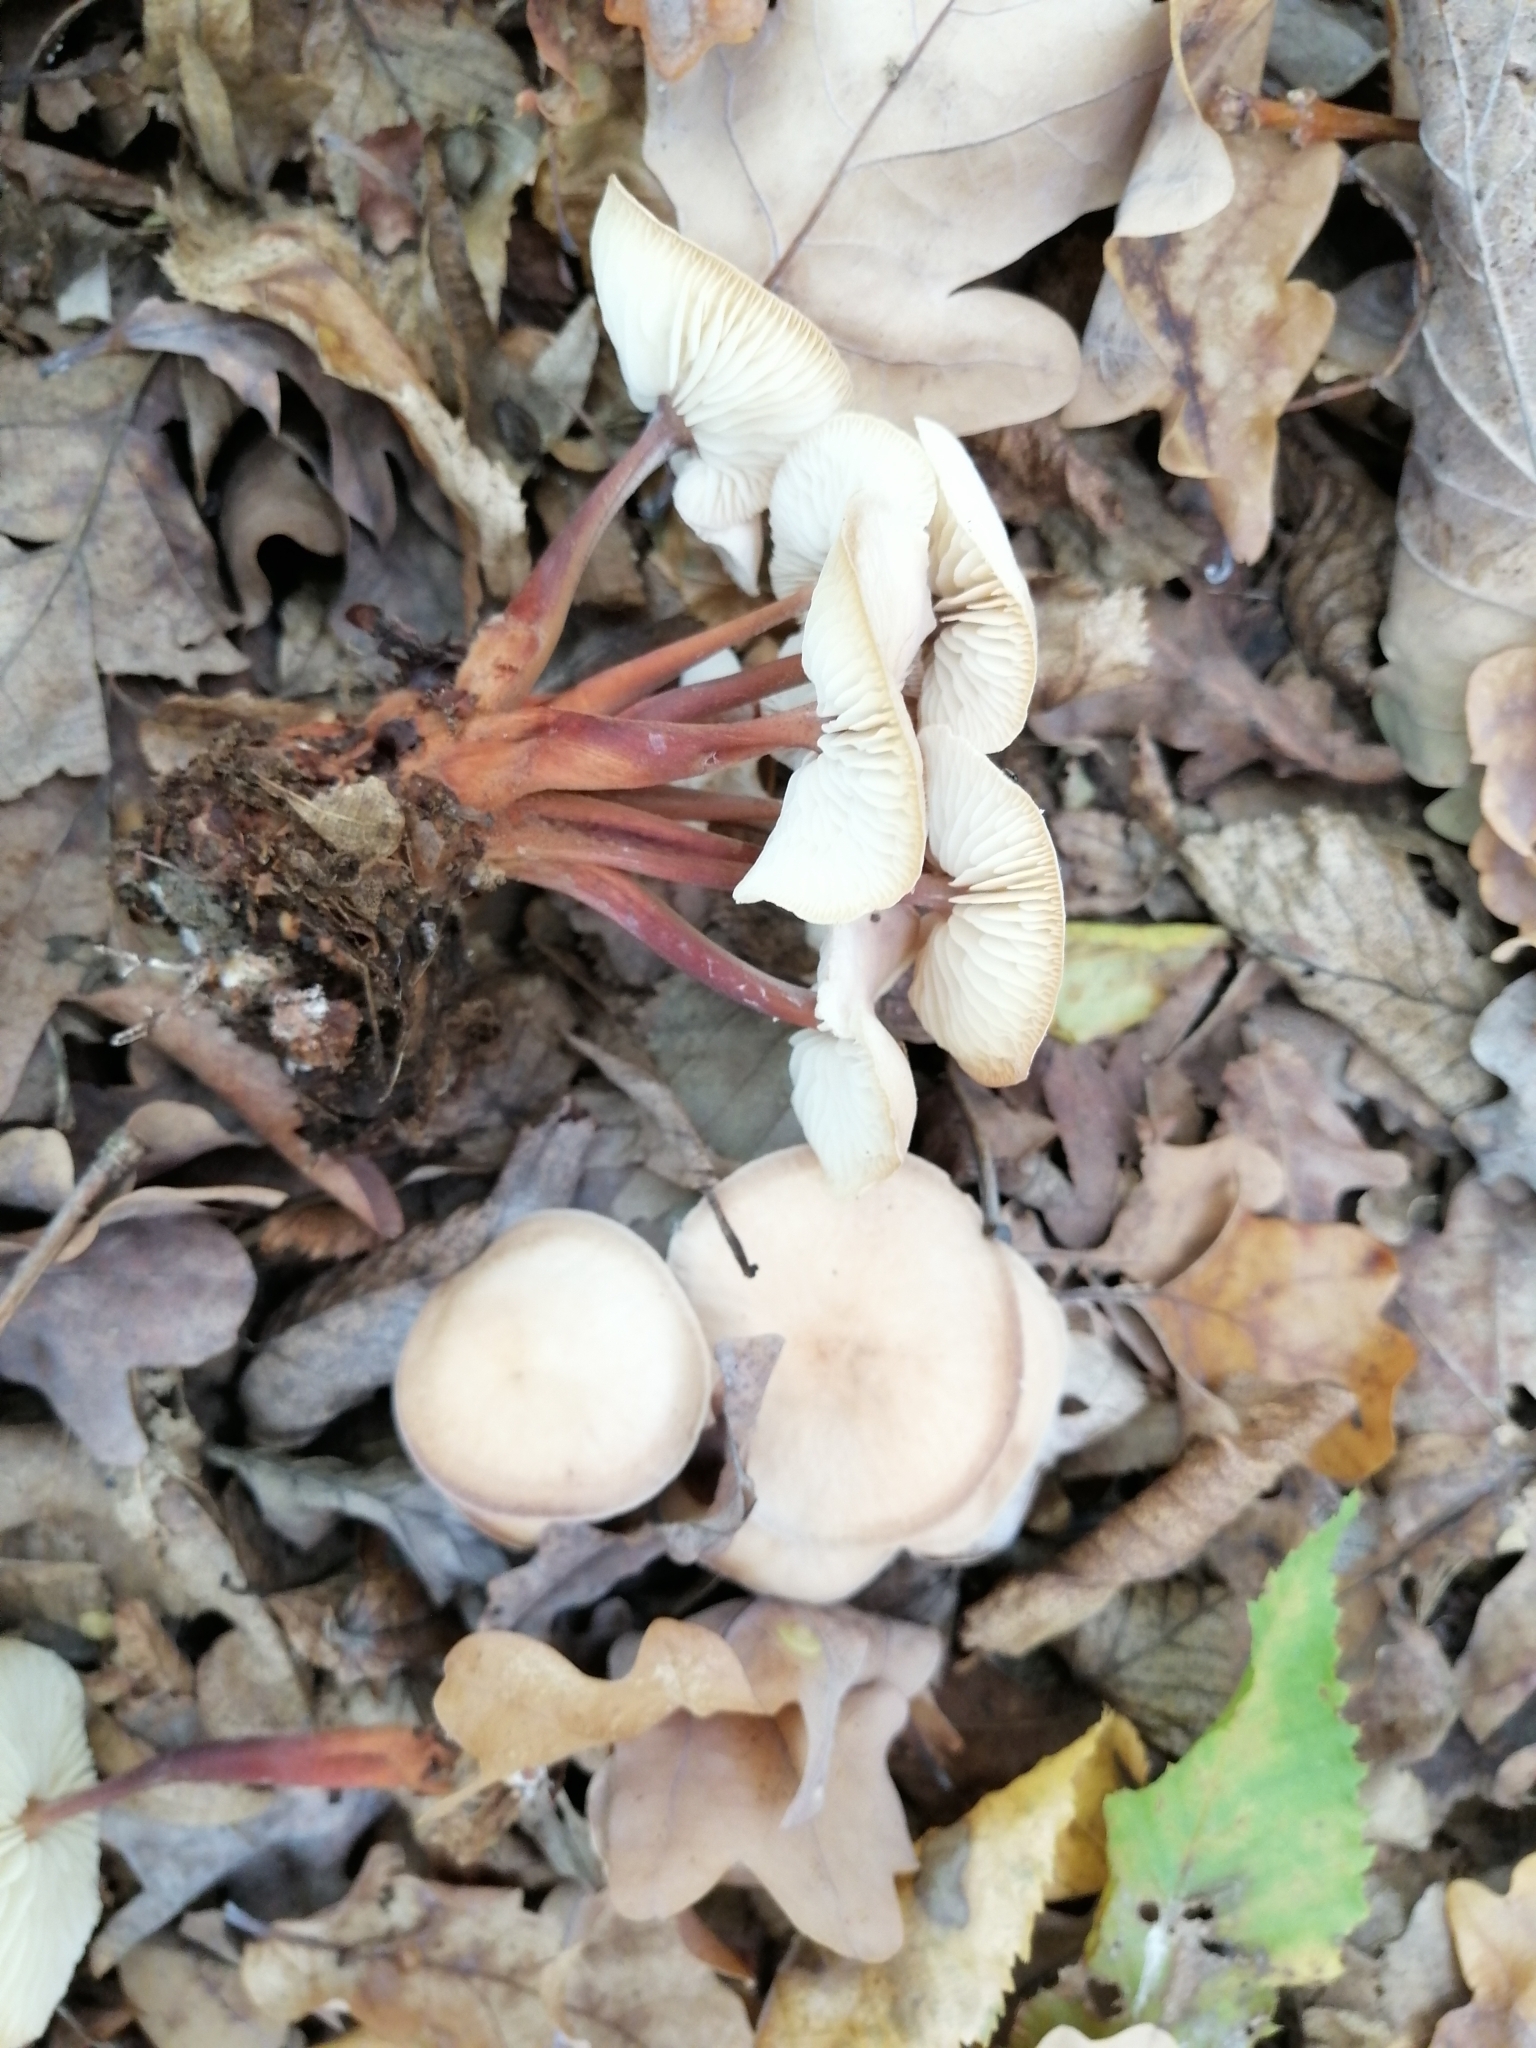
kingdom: Fungi
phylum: Basidiomycota
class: Agaricomycetes
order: Agaricales
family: Omphalotaceae
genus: Gymnopus
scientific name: Gymnopus erythropus
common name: Redleg toughshank
